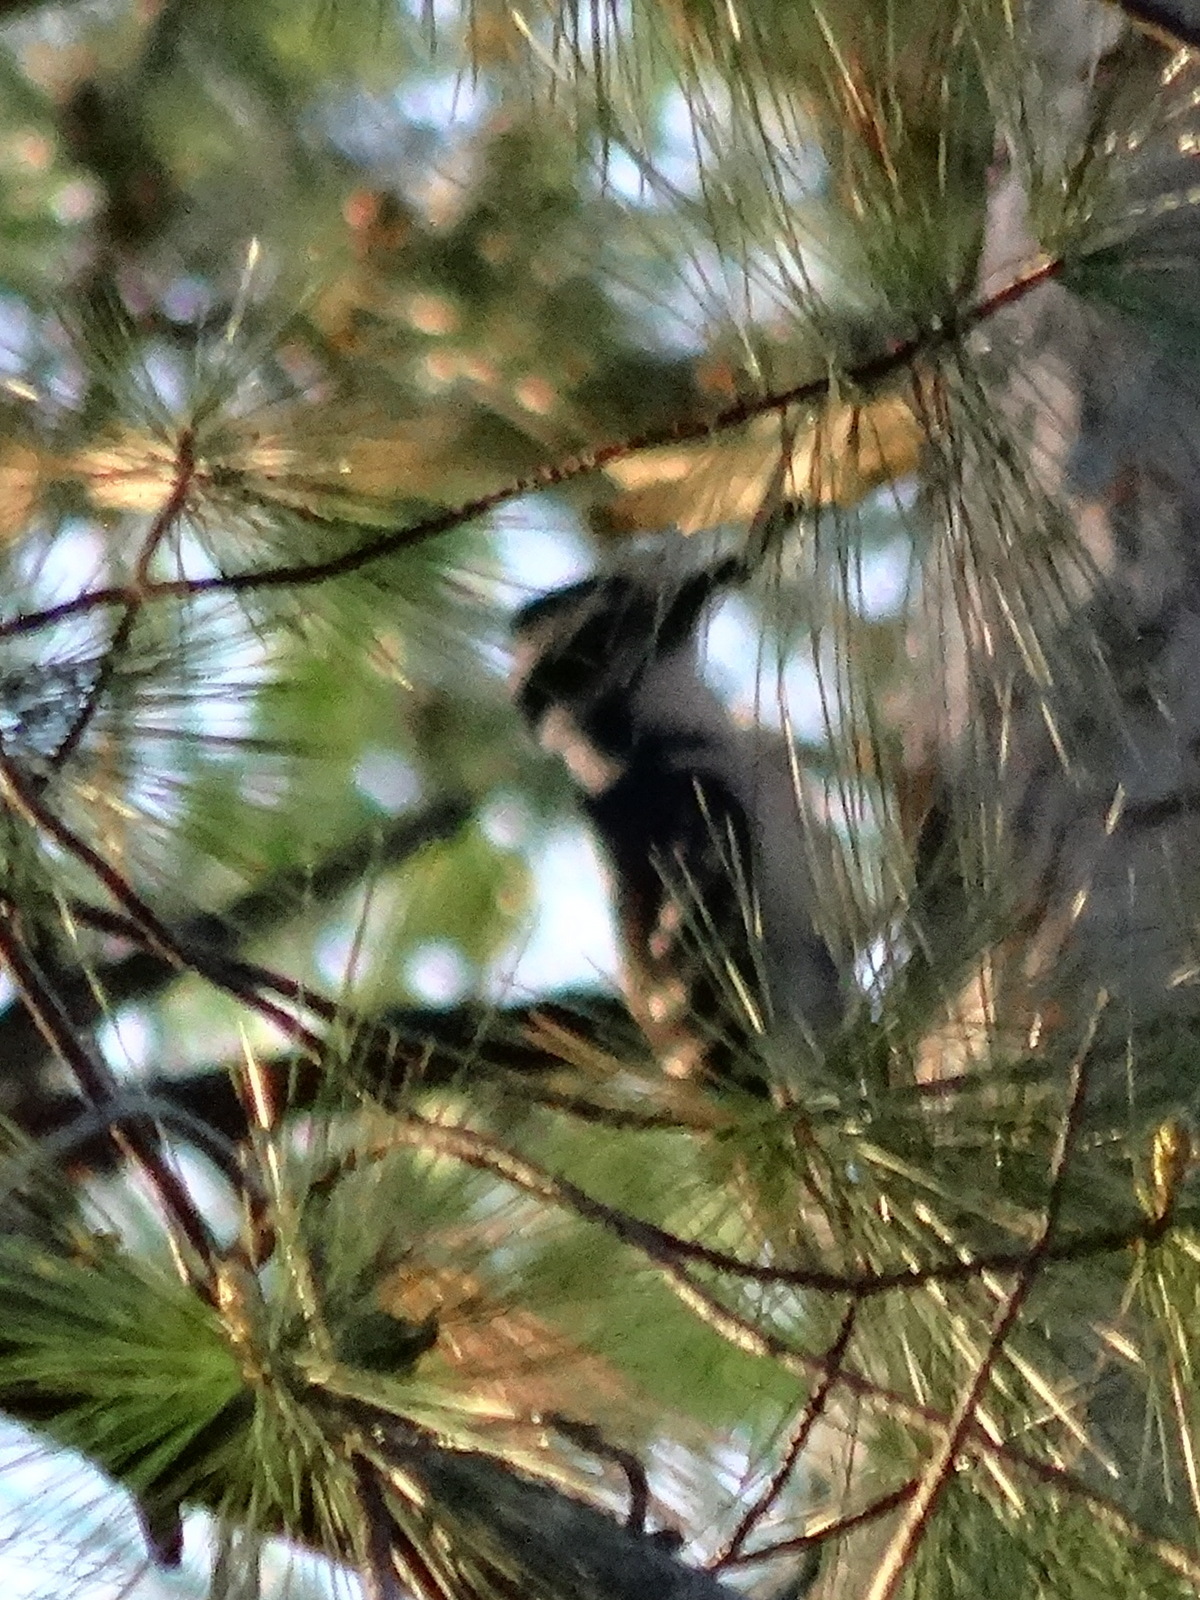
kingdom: Animalia
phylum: Chordata
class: Aves
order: Piciformes
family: Picidae
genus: Leuconotopicus
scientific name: Leuconotopicus villosus
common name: Hairy woodpecker
